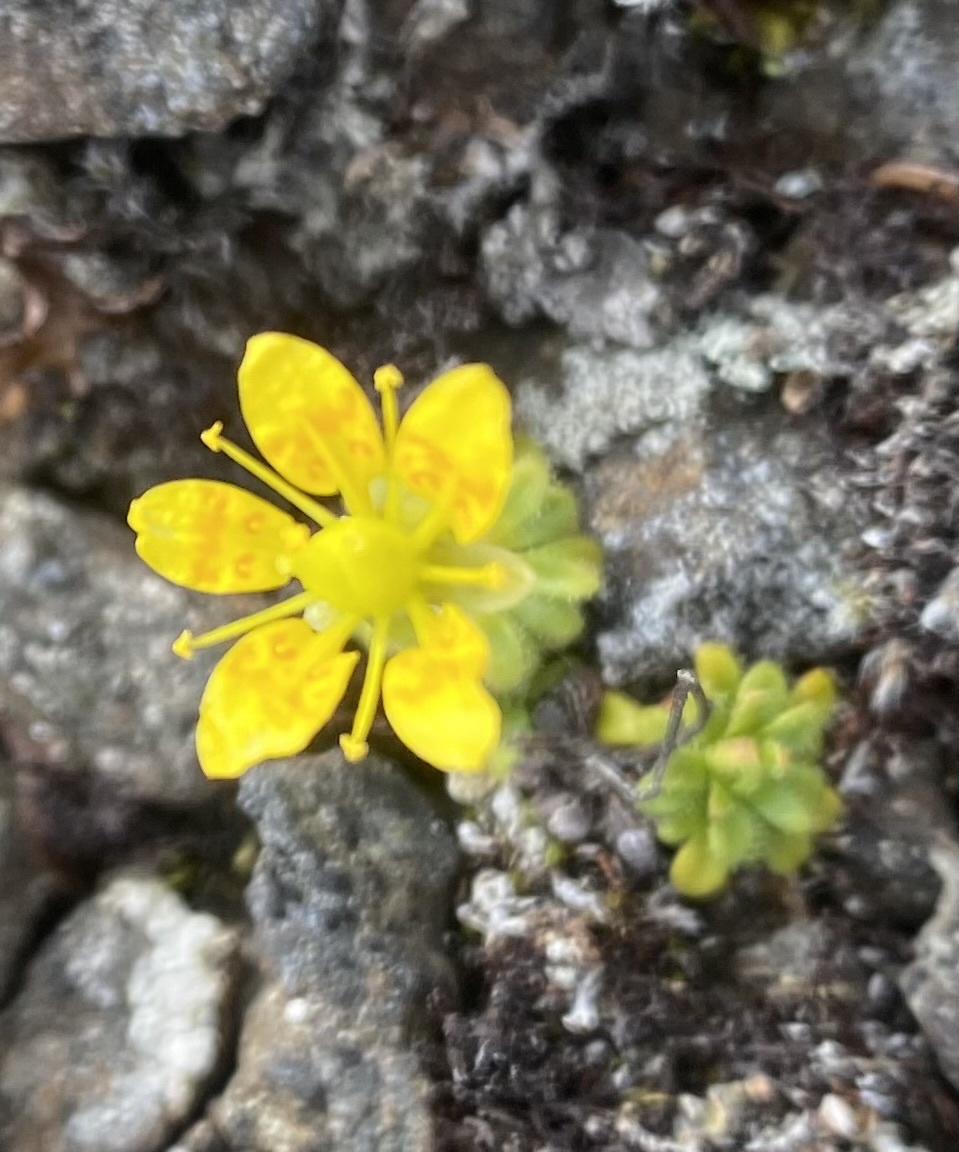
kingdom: Plantae
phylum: Tracheophyta
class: Magnoliopsida
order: Saxifragales
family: Saxifragaceae
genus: Saxifraga
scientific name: Saxifraga serpyllifolia
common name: Thyme-leaved saxifrage
